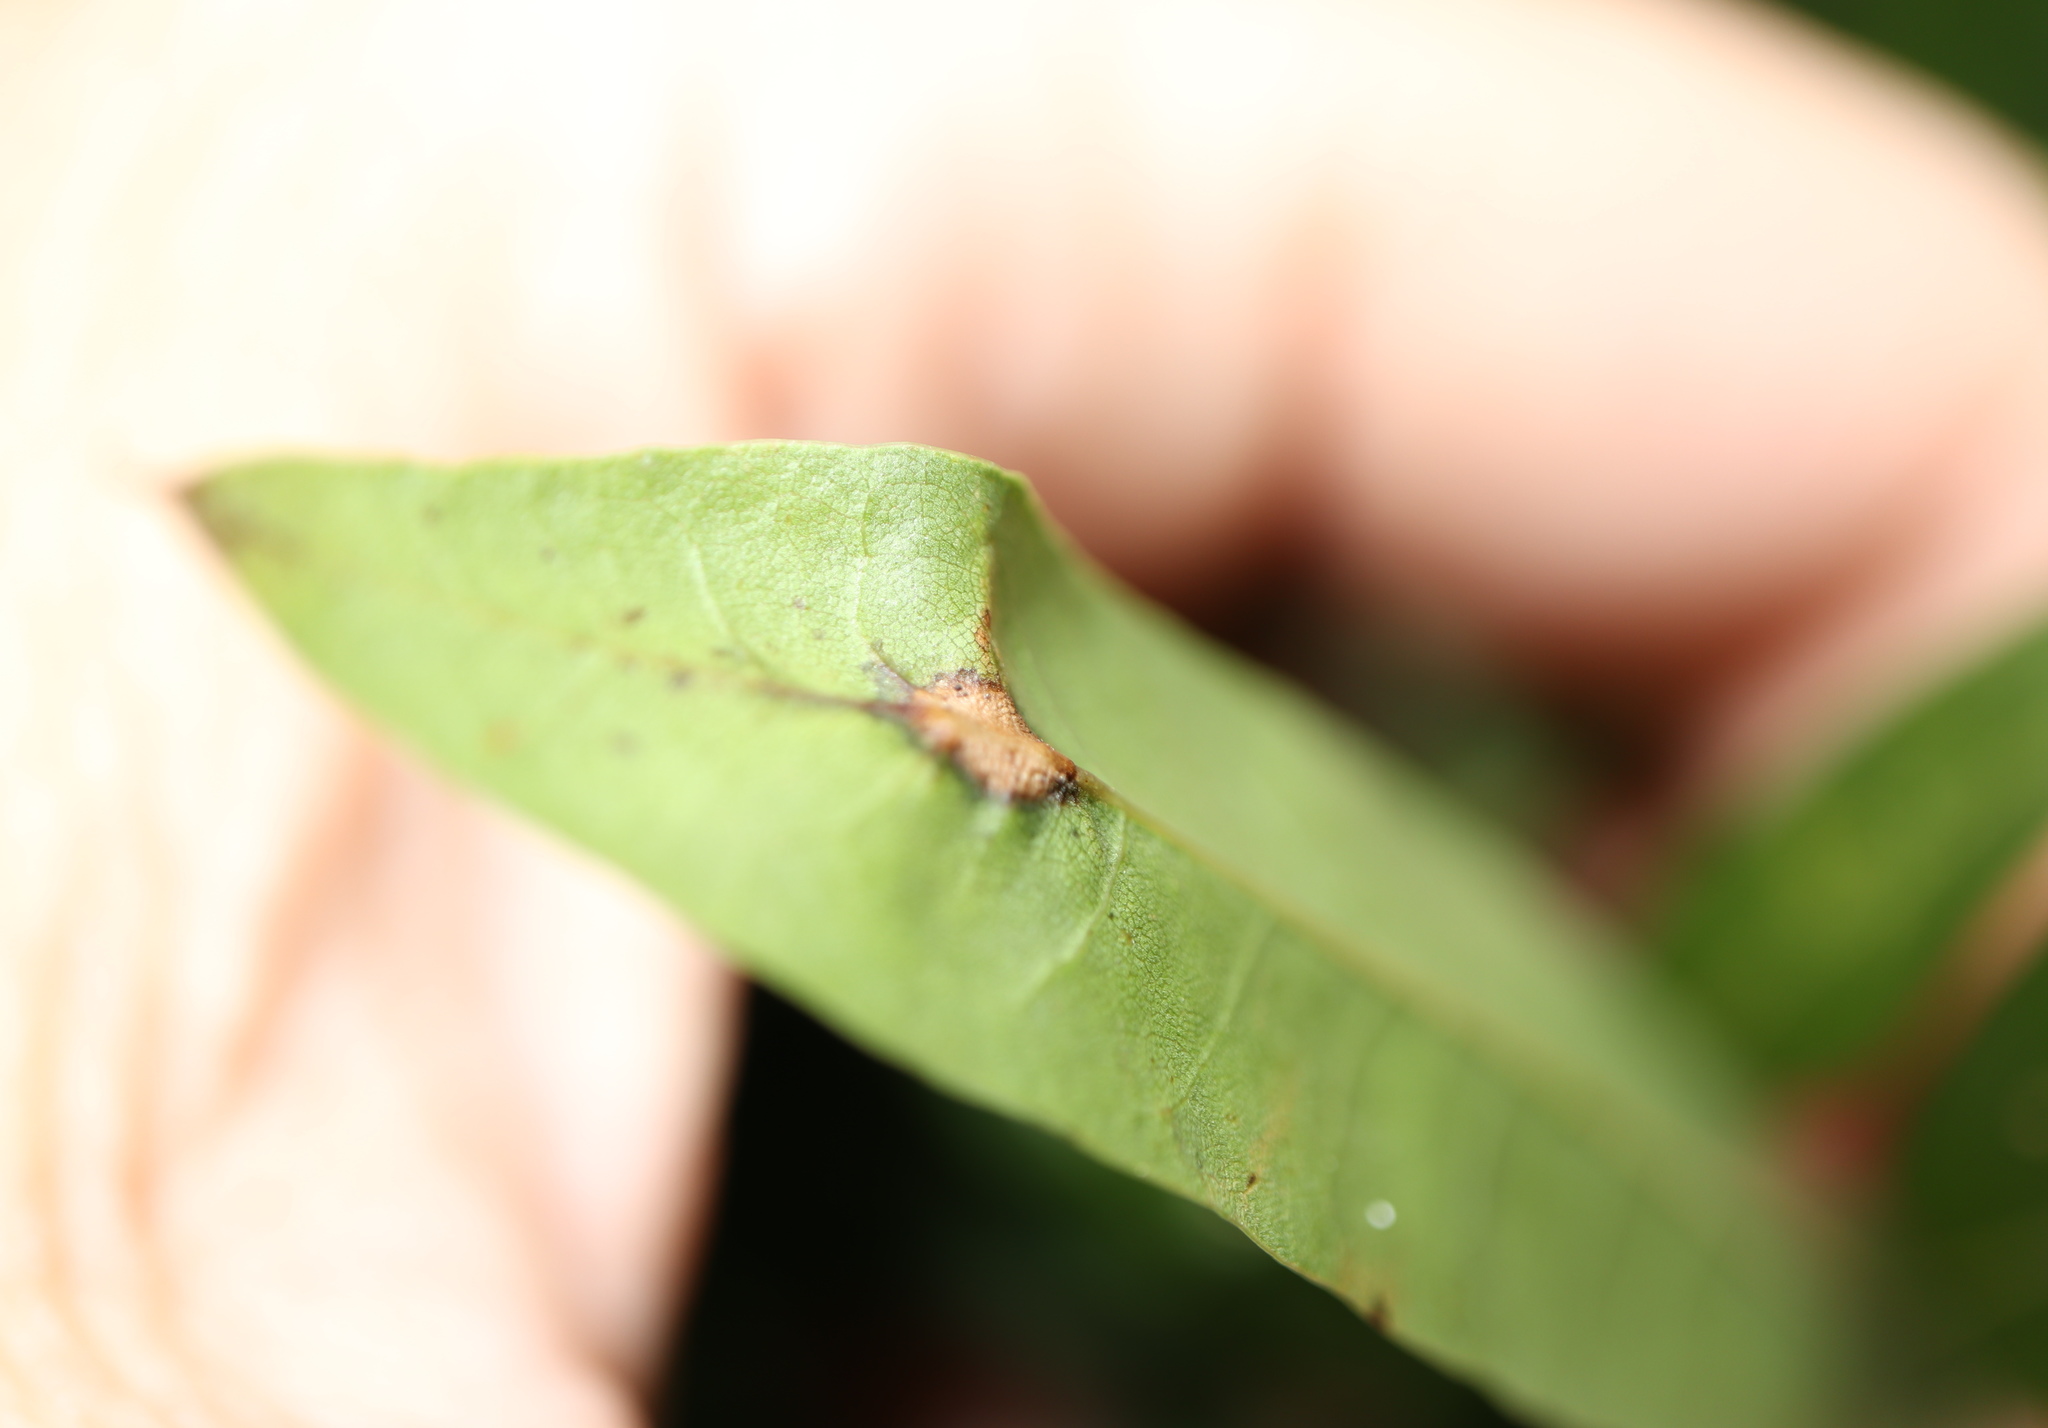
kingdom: Animalia
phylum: Arthropoda
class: Insecta
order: Diptera
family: Cecidomyiidae
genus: Polystepha
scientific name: Polystepha pilulae
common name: Oak leaf gall midge
